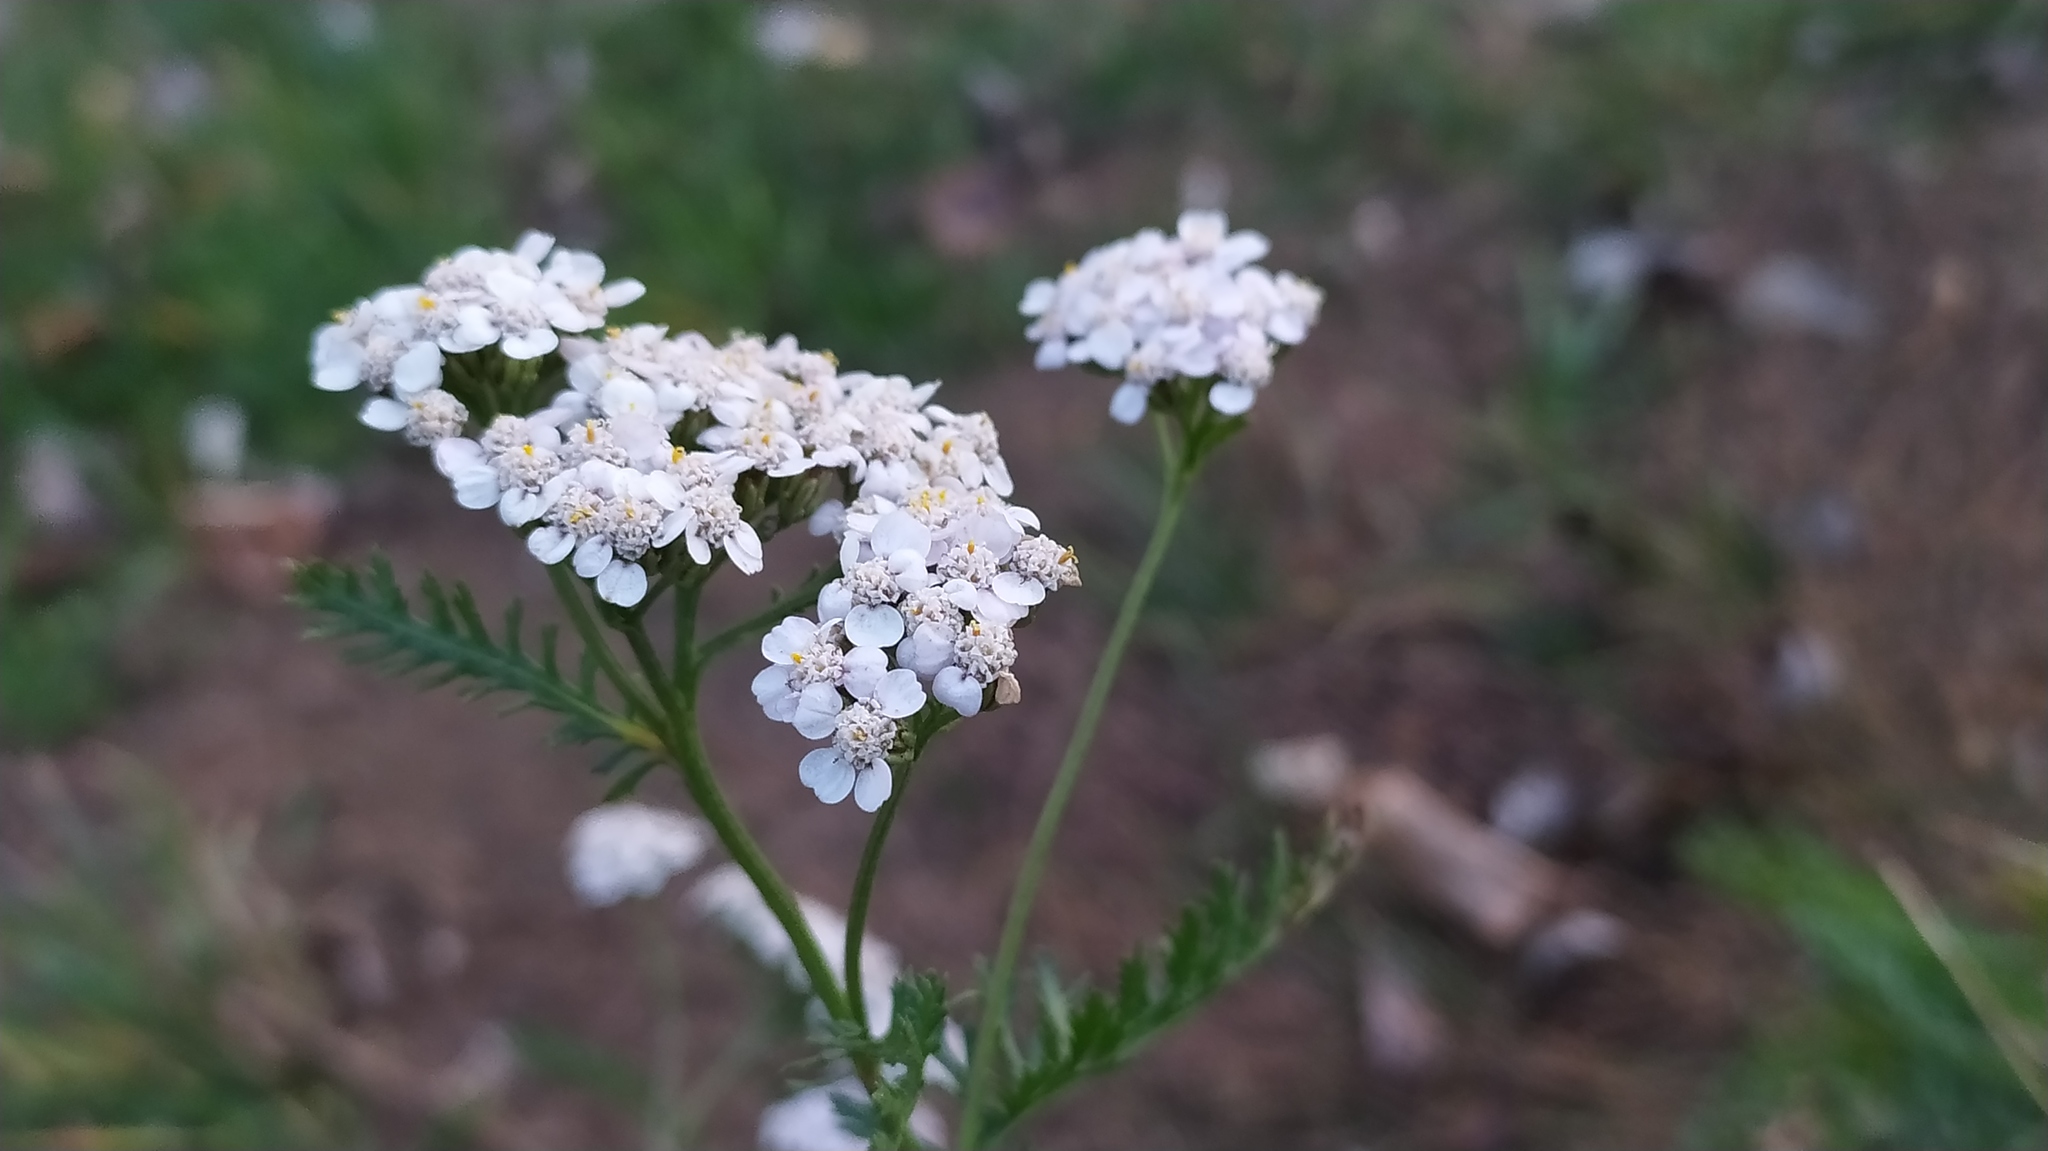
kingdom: Plantae
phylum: Tracheophyta
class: Magnoliopsida
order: Asterales
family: Asteraceae
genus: Achillea
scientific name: Achillea millefolium
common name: Yarrow
